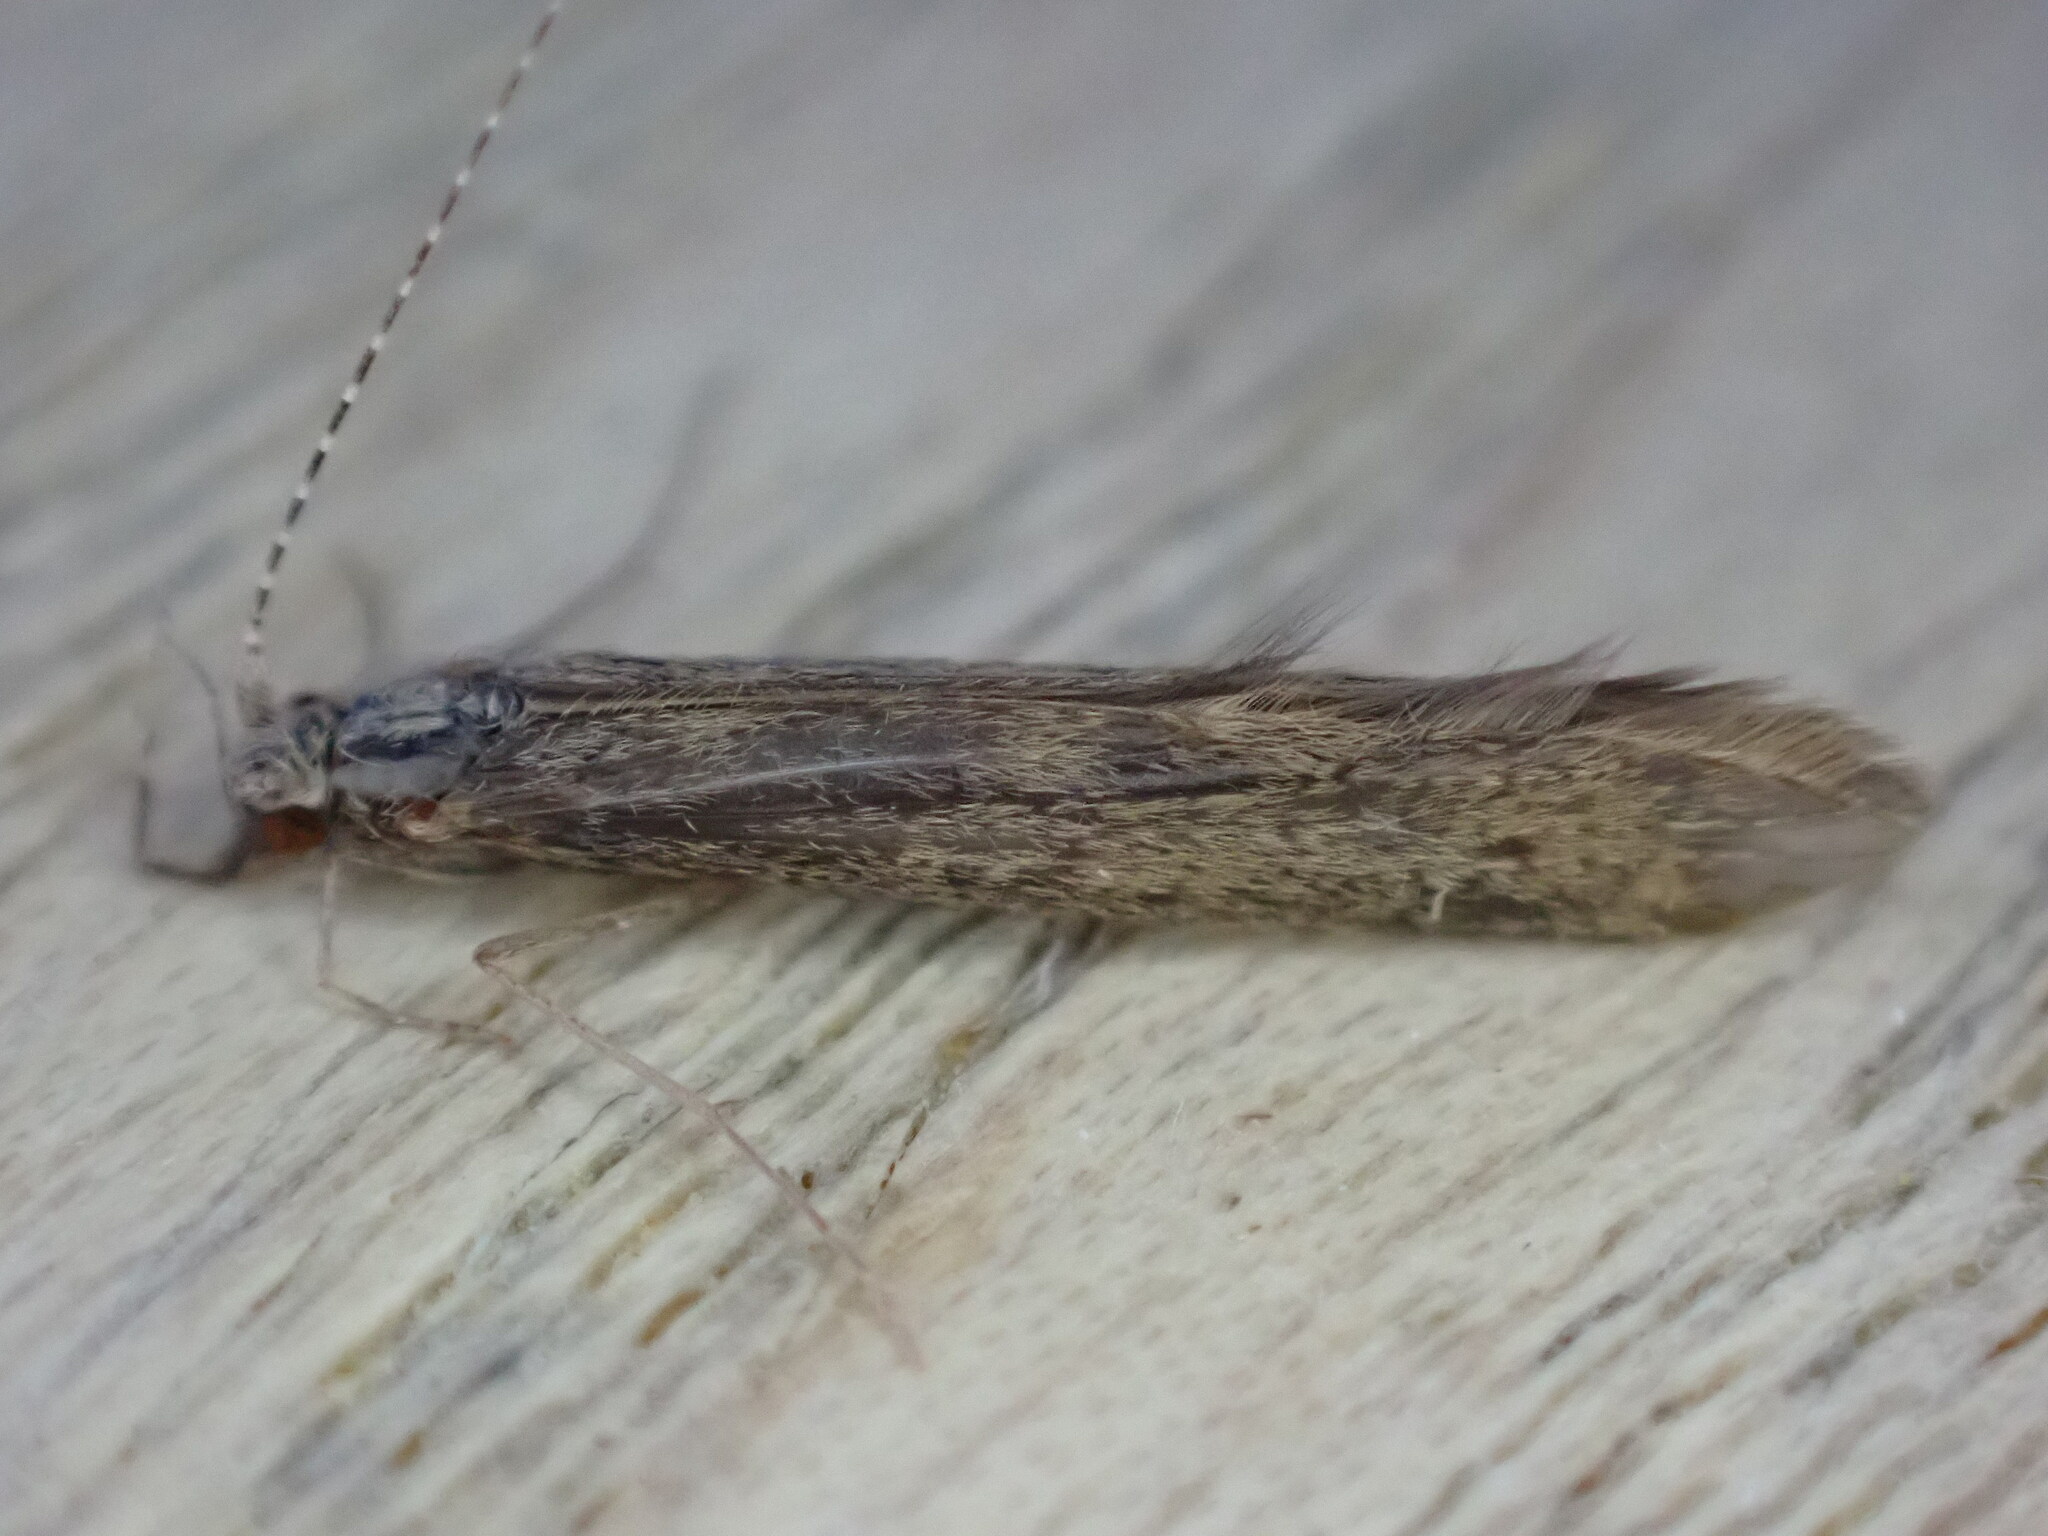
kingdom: Animalia
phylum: Arthropoda
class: Insecta
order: Trichoptera
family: Leptoceridae
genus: Leptocerus
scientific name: Leptocerus tineiformis
